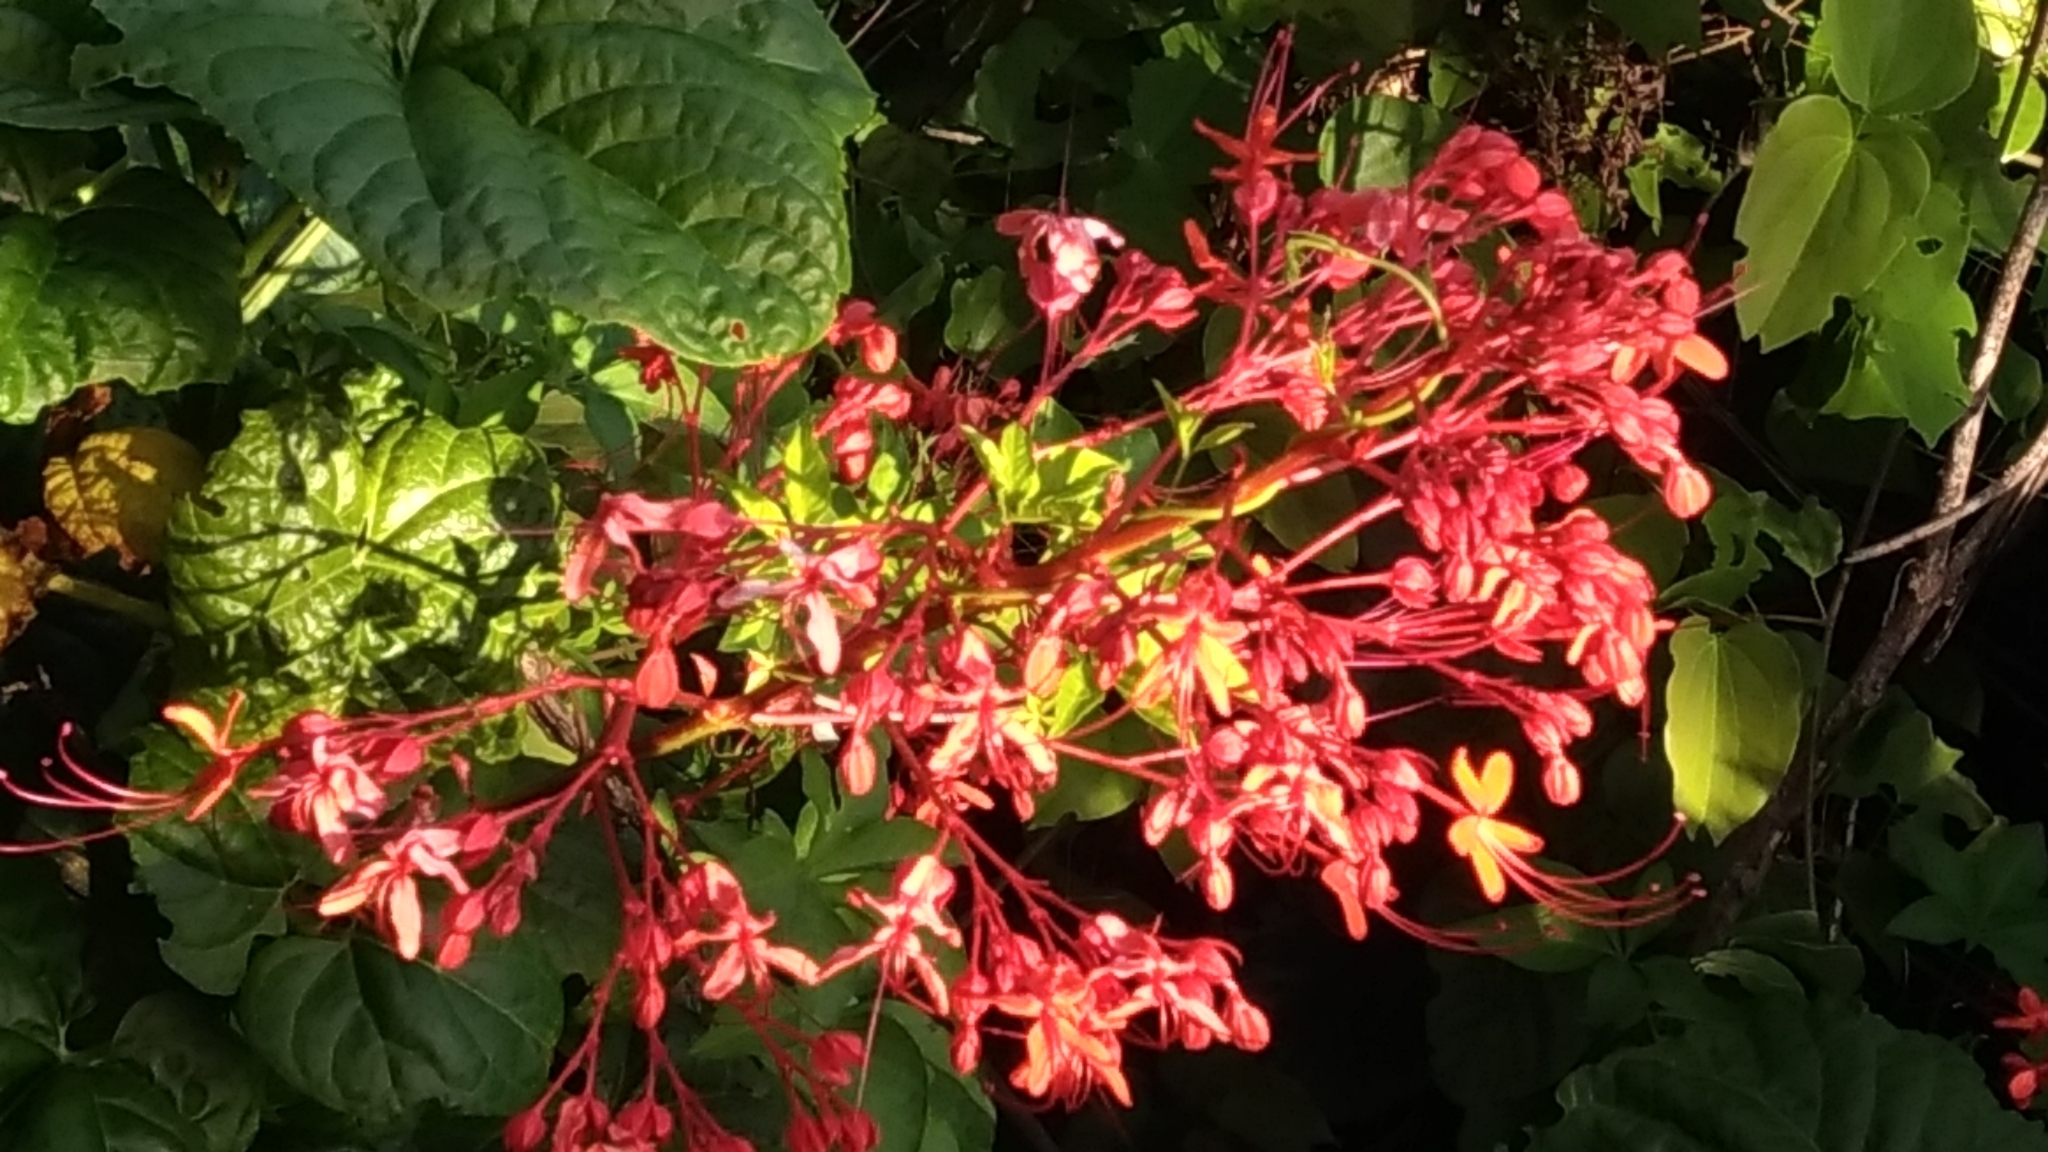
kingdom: Plantae
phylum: Tracheophyta
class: Magnoliopsida
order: Lamiales
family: Lamiaceae
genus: Clerodendrum
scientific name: Clerodendrum japonicum
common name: Japanese glorybower
